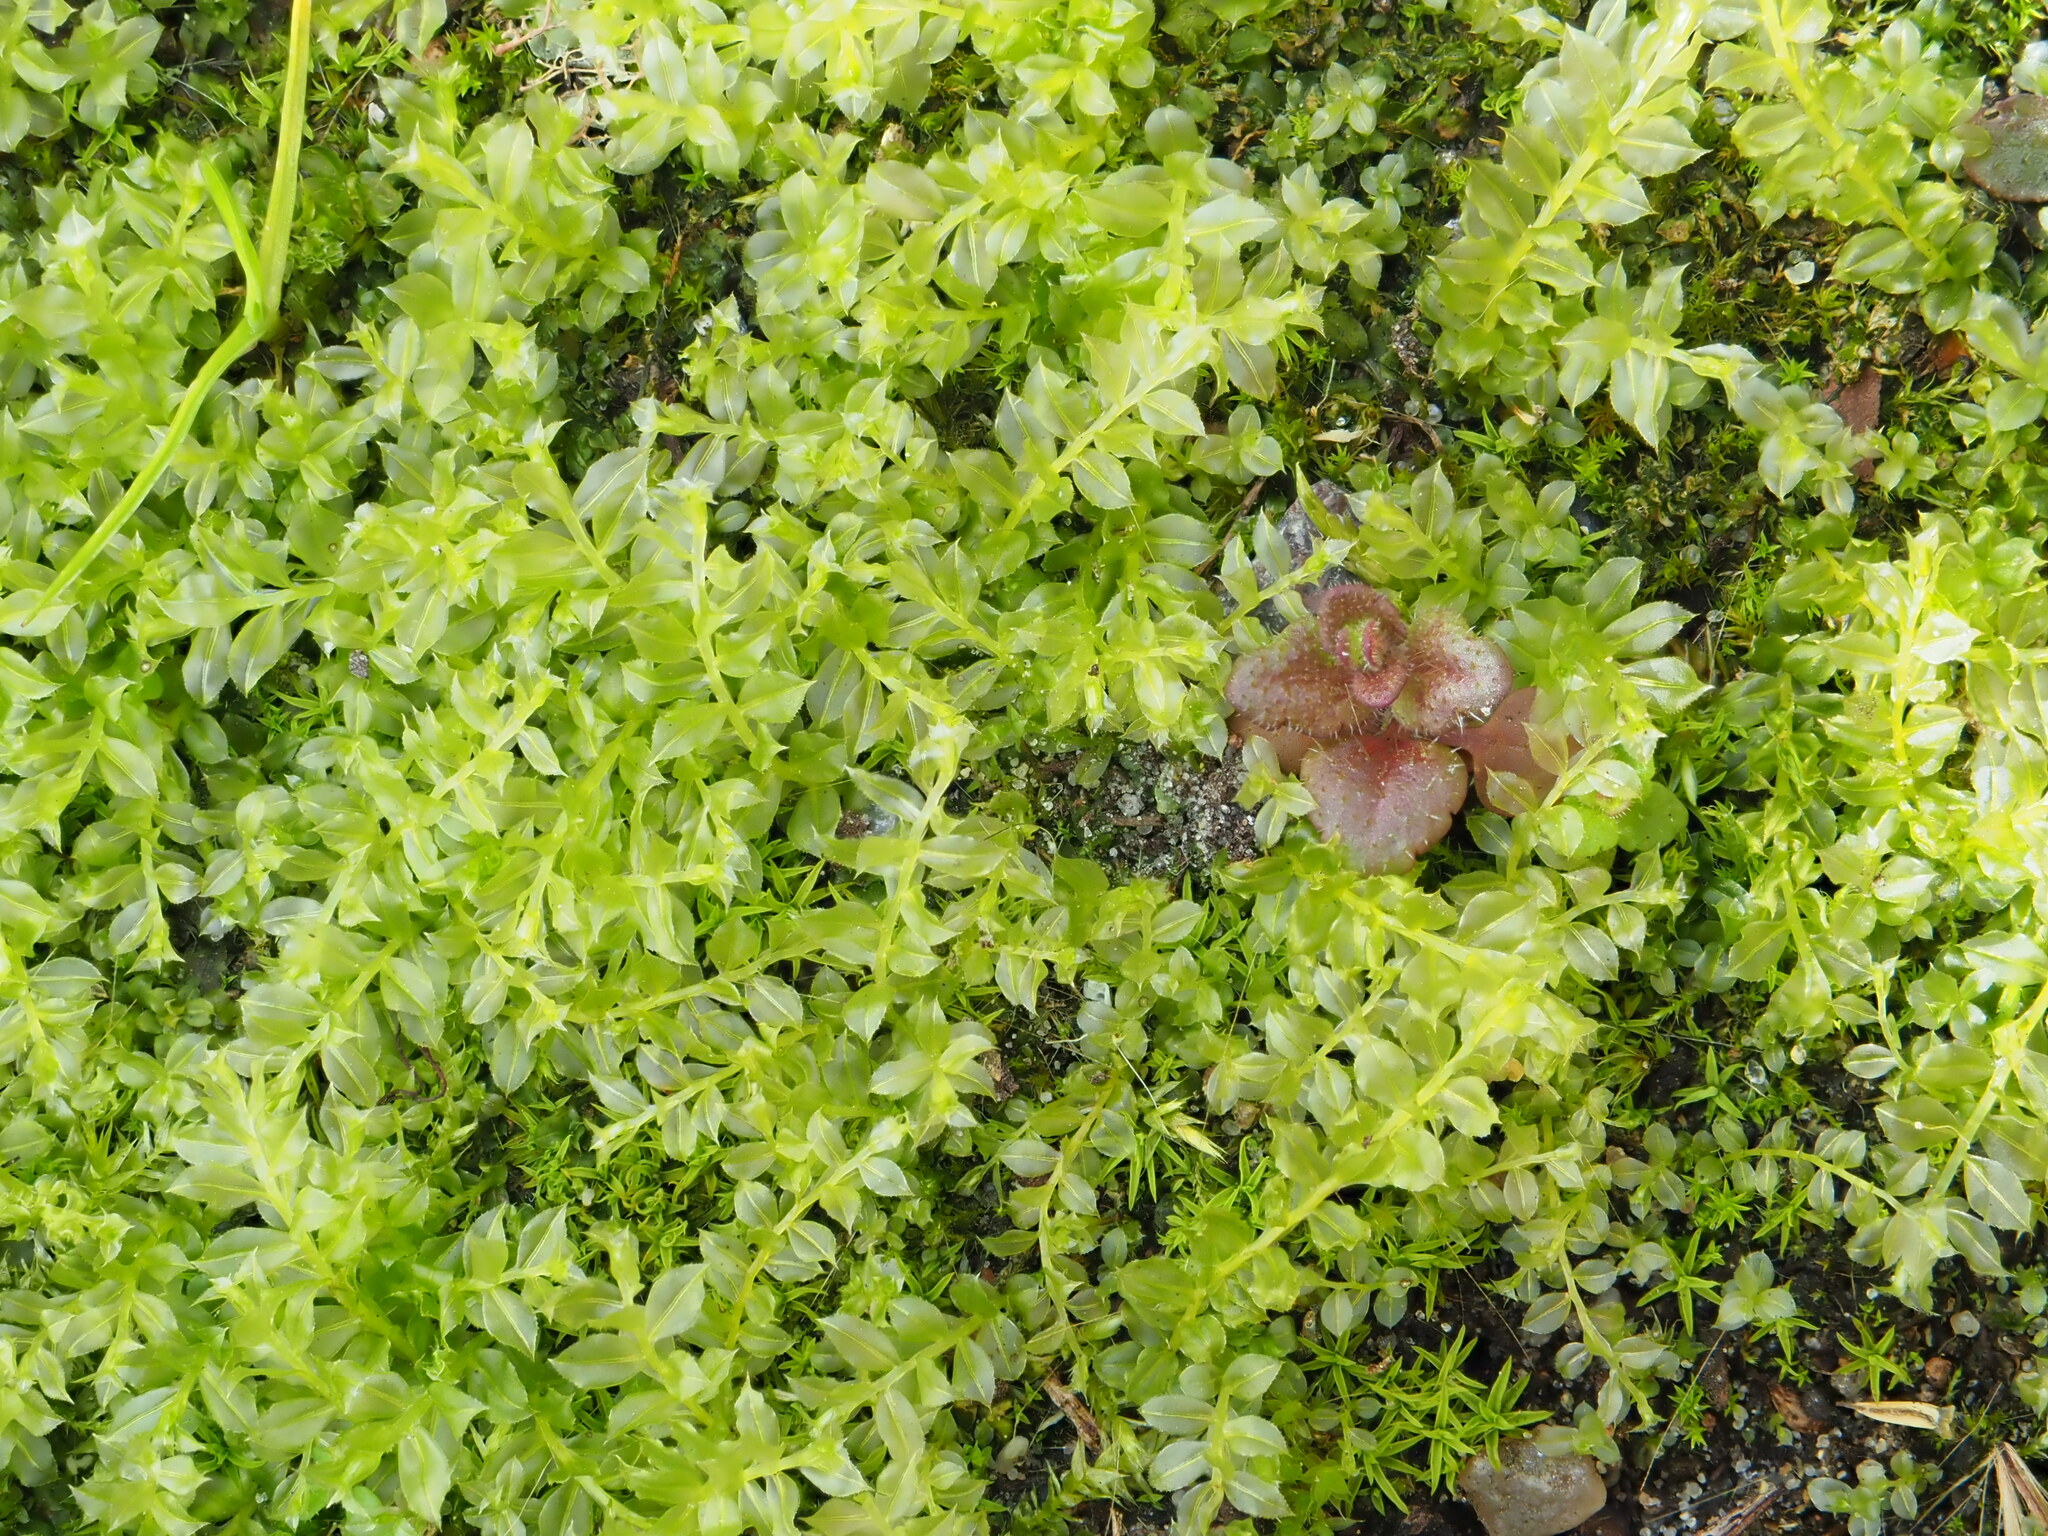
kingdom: Plantae
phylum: Bryophyta
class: Bryopsida
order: Bryales
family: Mniaceae
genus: Plagiomnium
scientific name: Plagiomnium cuspidatum
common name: Woodsy leafy moss
